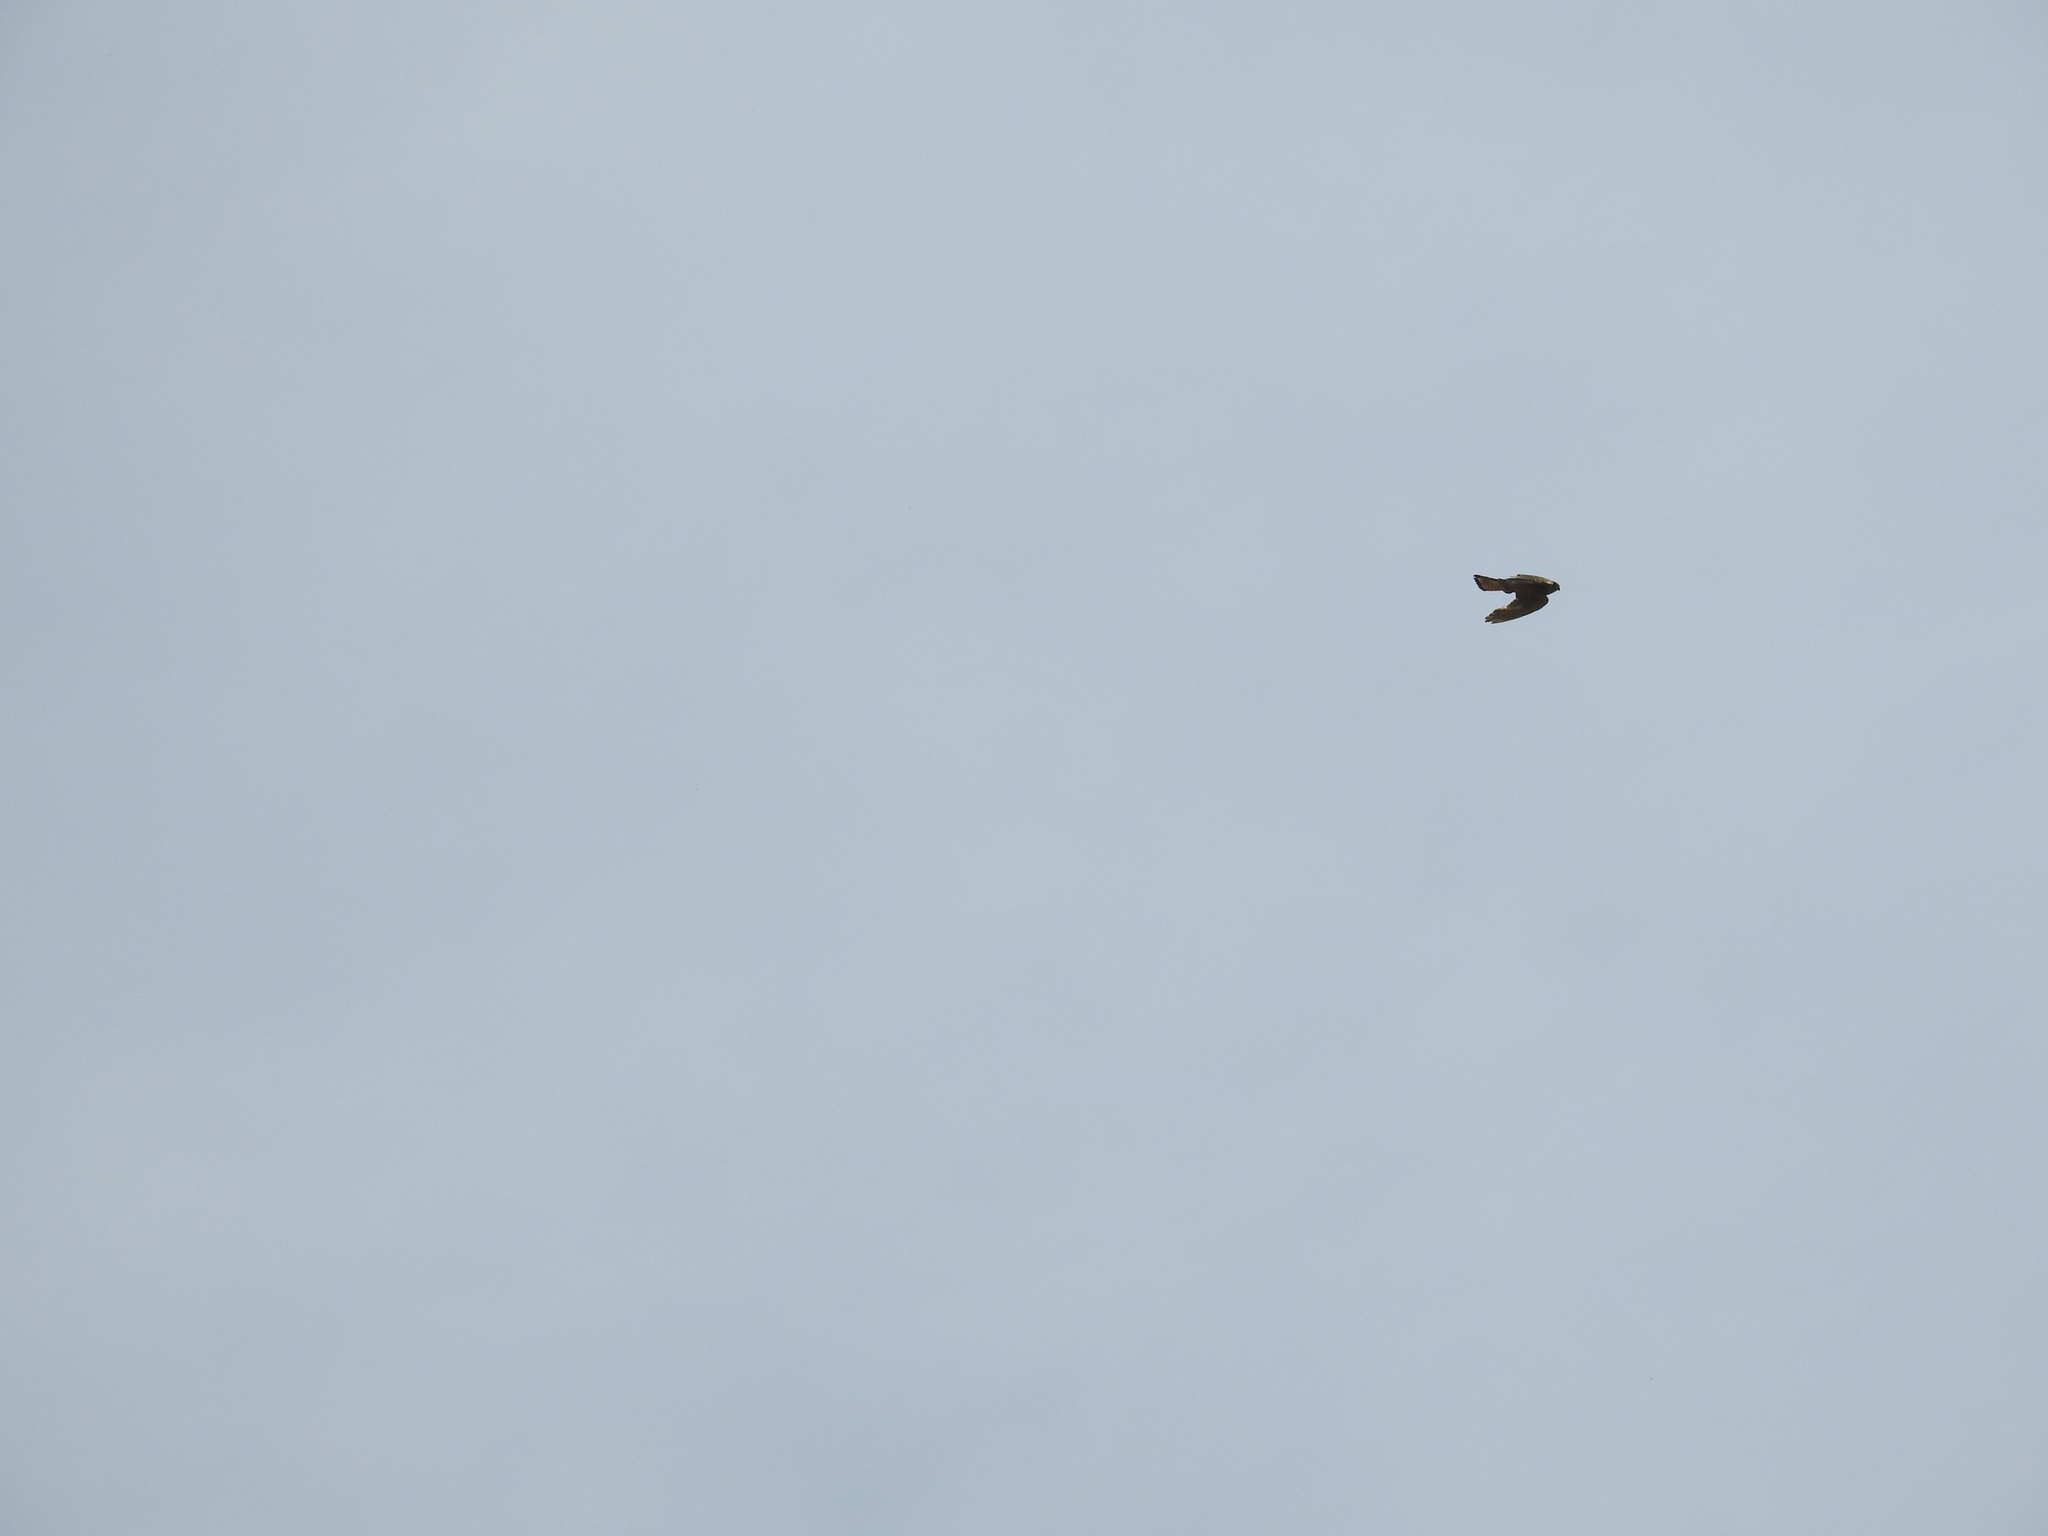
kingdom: Animalia
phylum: Chordata
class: Aves
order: Falconiformes
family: Falconidae
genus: Falco
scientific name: Falco tinnunculus
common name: Common kestrel
